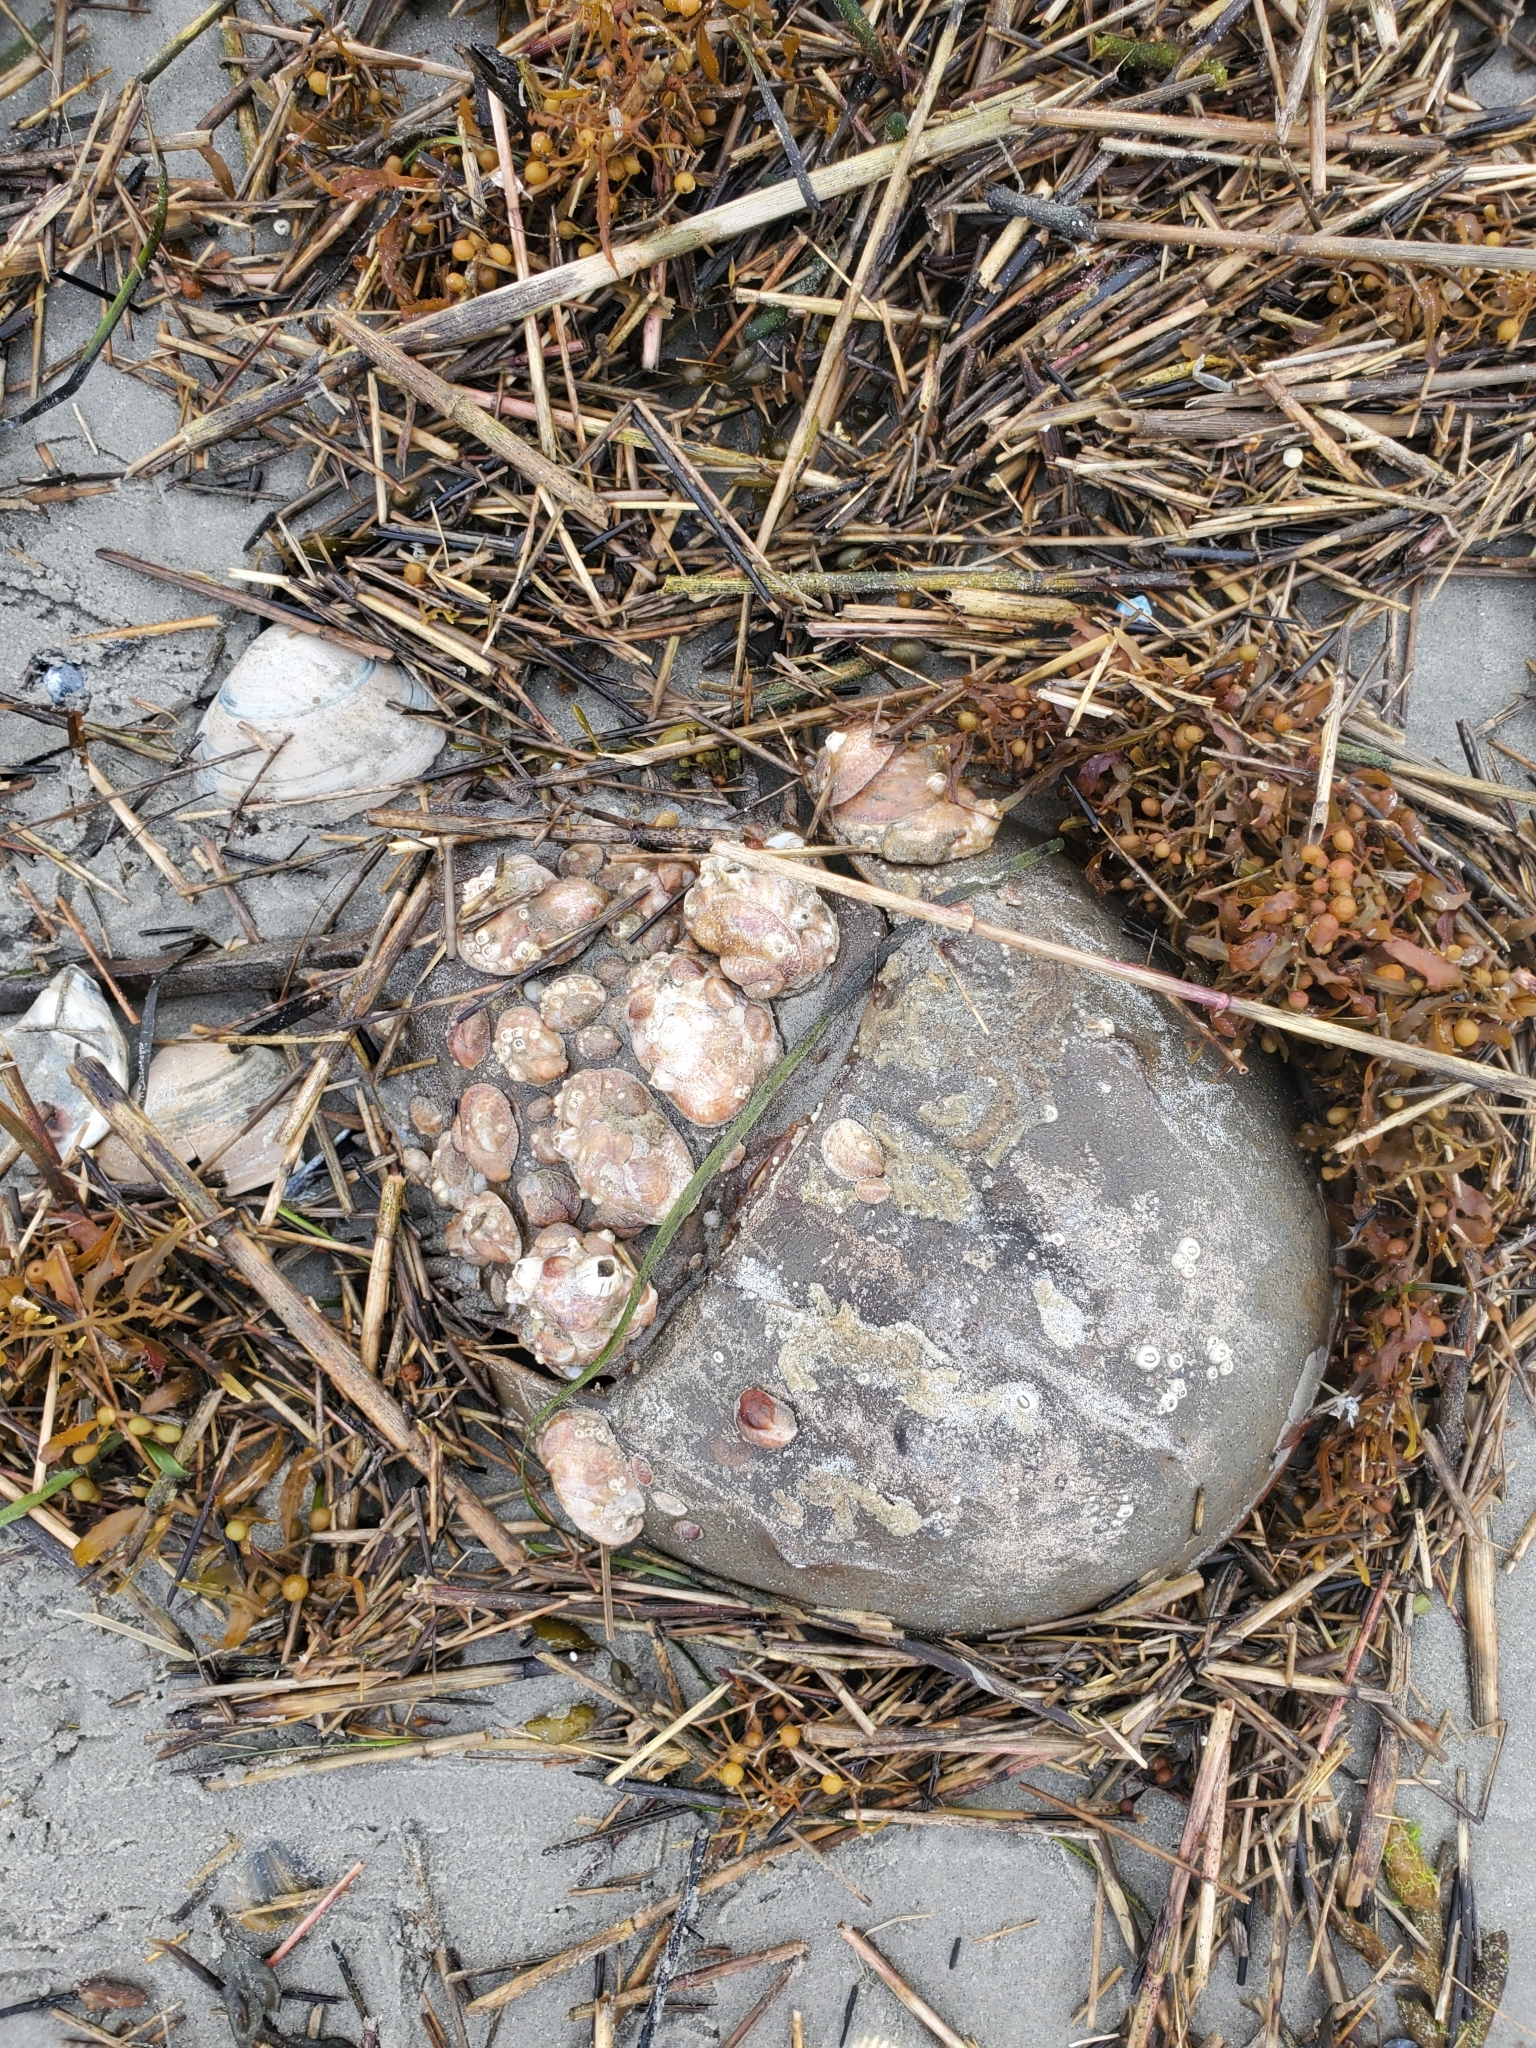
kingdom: Animalia
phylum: Arthropoda
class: Merostomata
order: Xiphosurida
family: Limulidae
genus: Limulus
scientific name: Limulus polyphemus
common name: Horseshoe crab
